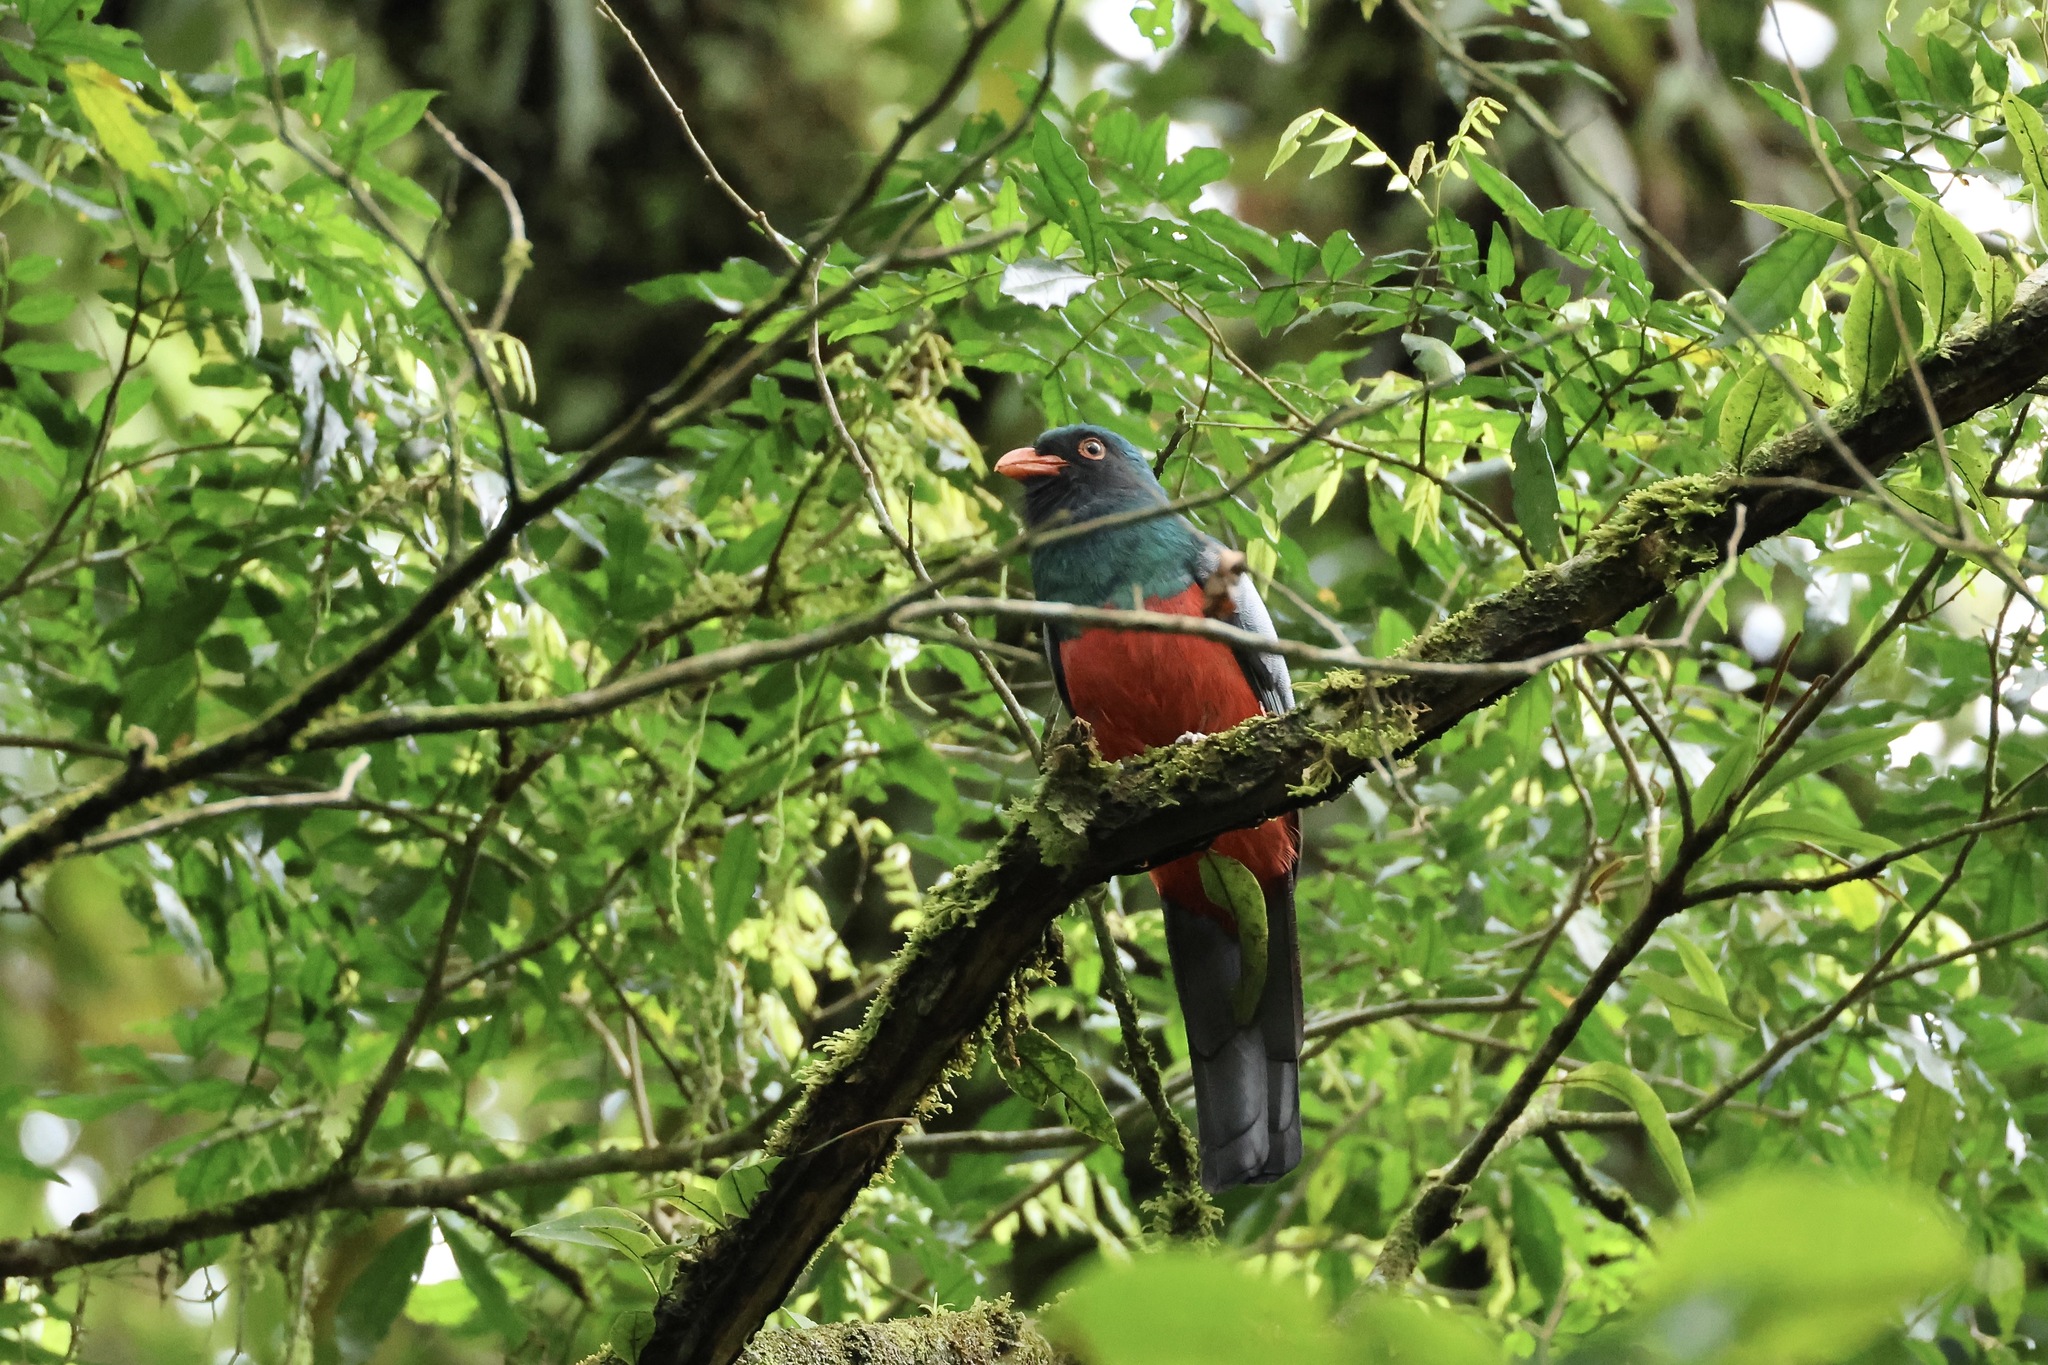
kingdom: Animalia
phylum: Chordata
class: Aves
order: Trogoniformes
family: Trogonidae
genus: Trogon
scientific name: Trogon massena
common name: Slaty-tailed trogon
